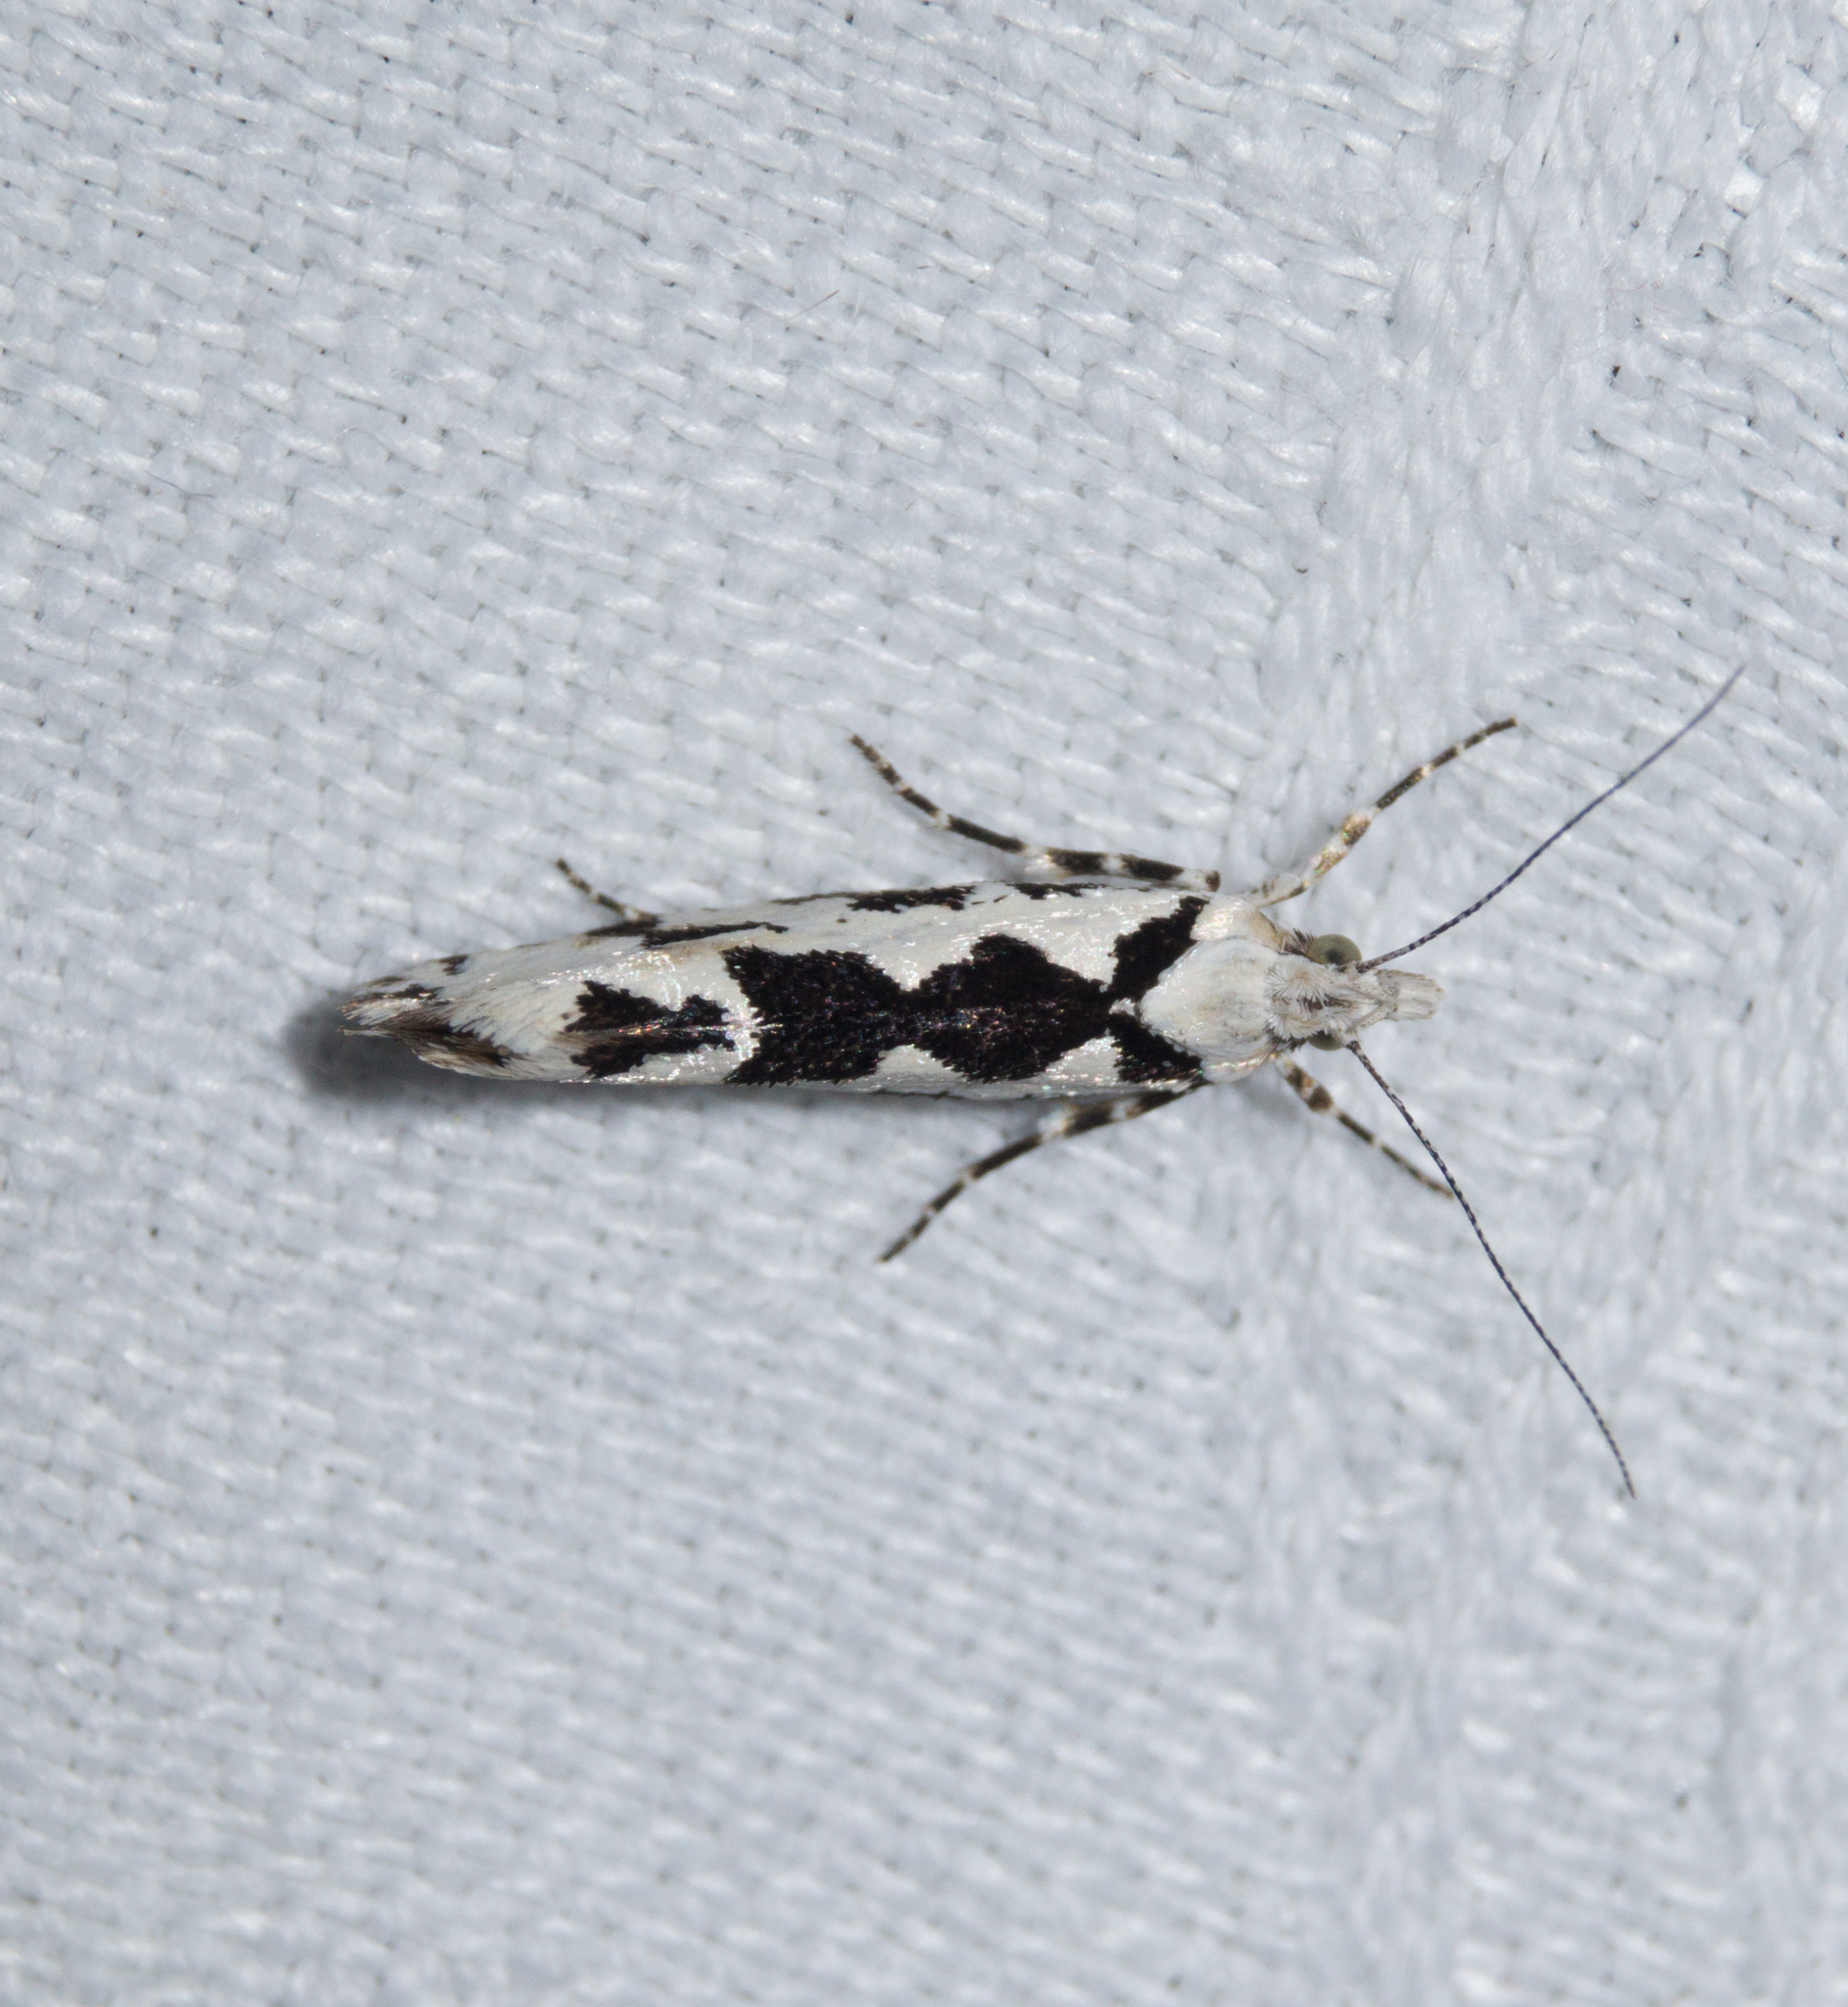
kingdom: Animalia
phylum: Arthropoda
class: Insecta
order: Lepidoptera
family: Plutellidae
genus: Ypsolophus
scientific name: Ypsolophus sequella
